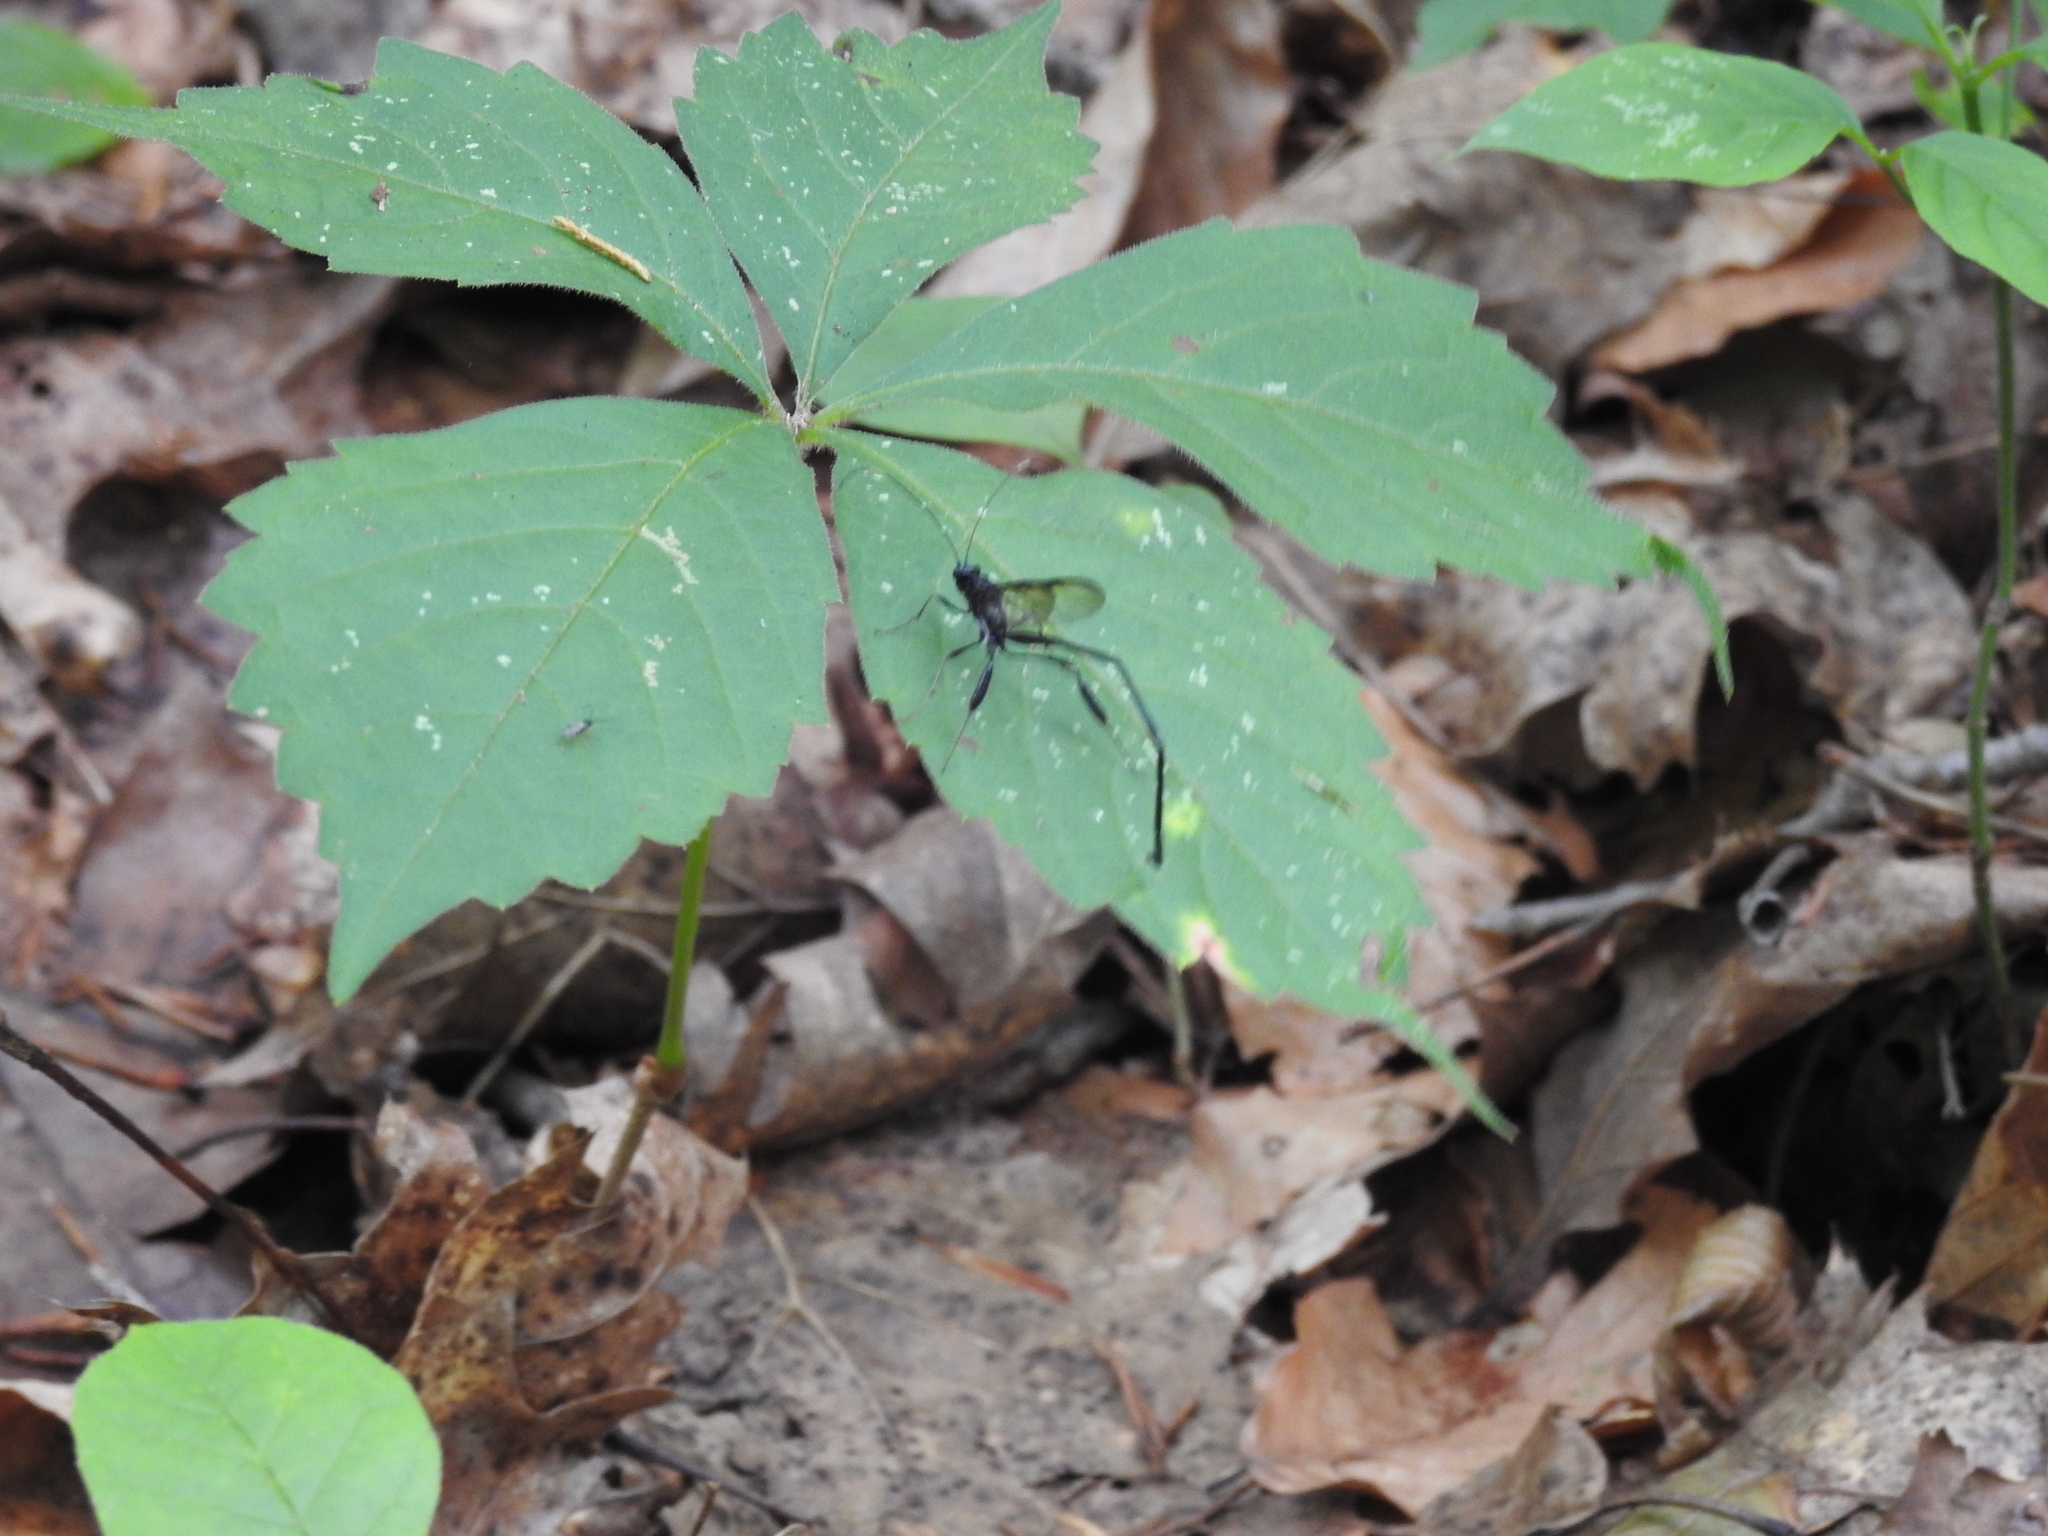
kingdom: Animalia
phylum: Arthropoda
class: Insecta
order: Hymenoptera
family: Pelecinidae
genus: Pelecinus
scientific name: Pelecinus polyturator
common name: American pelecinid wasp
